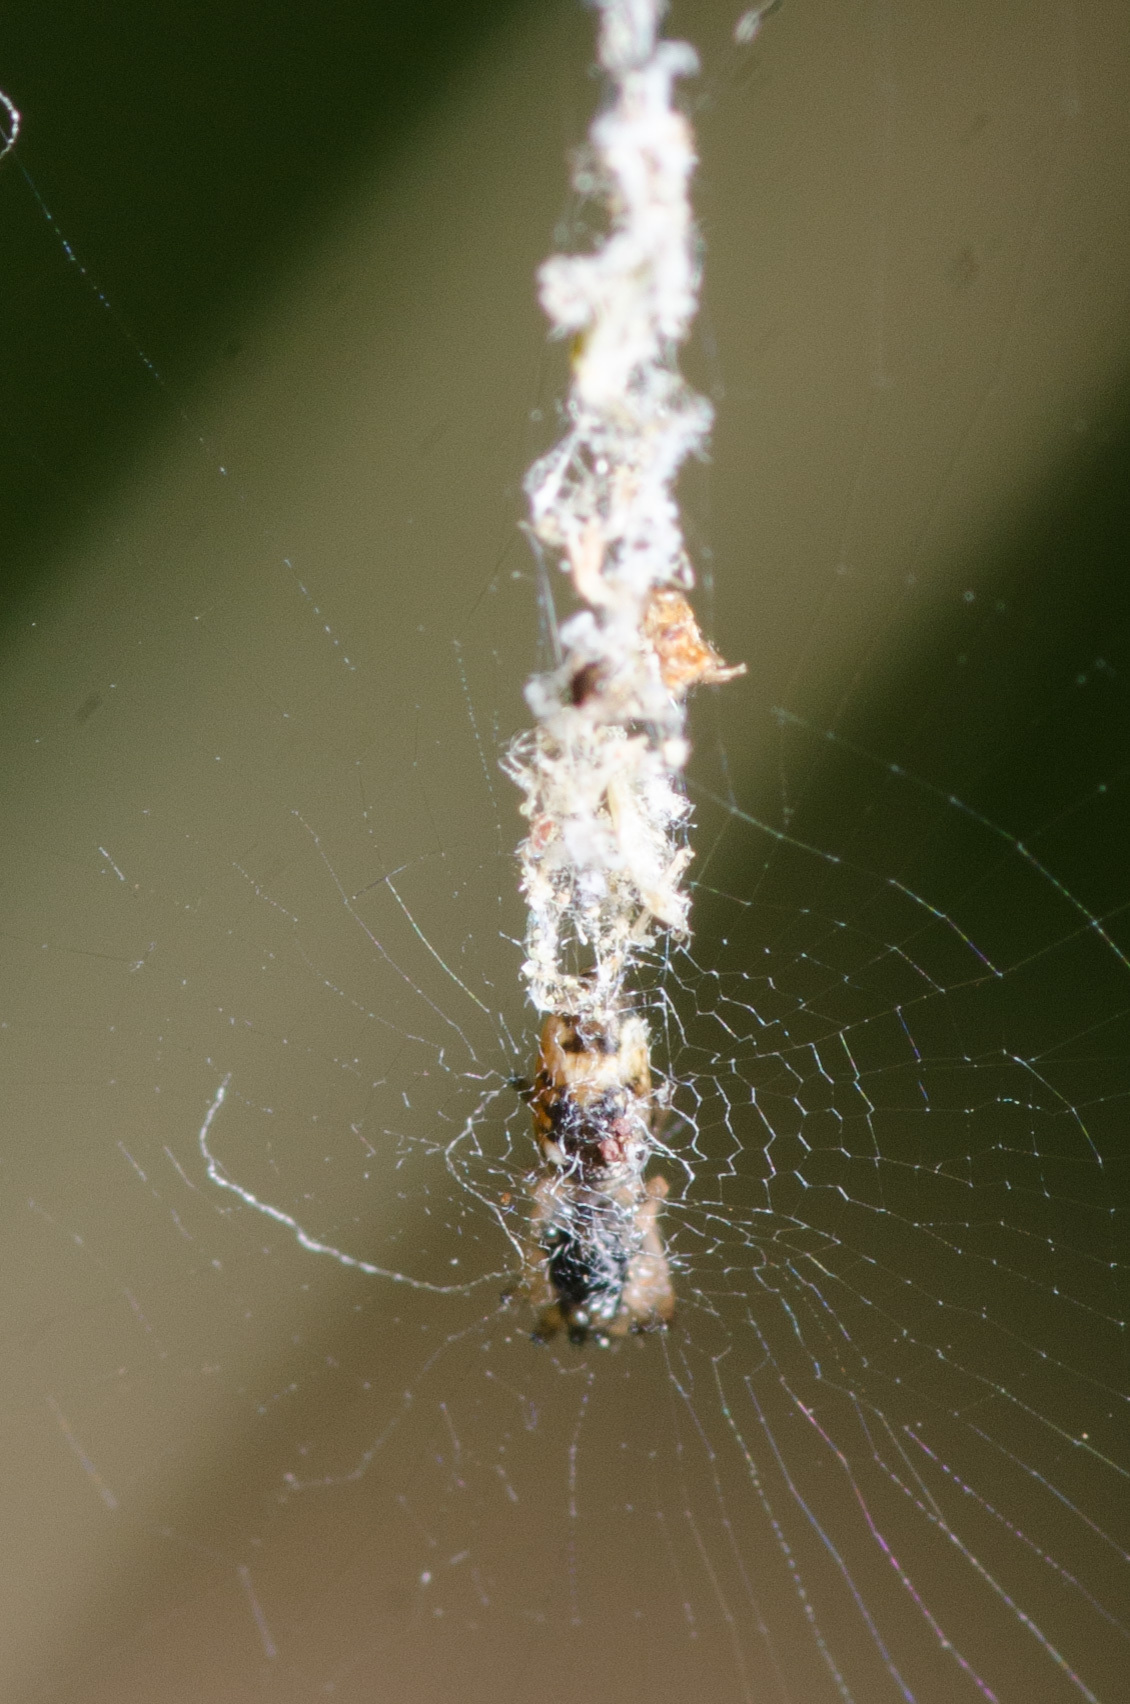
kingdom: Animalia
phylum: Arthropoda
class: Arachnida
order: Araneae
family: Araneidae
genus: Cyclosa
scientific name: Cyclosa caroli
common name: Orb weavers
